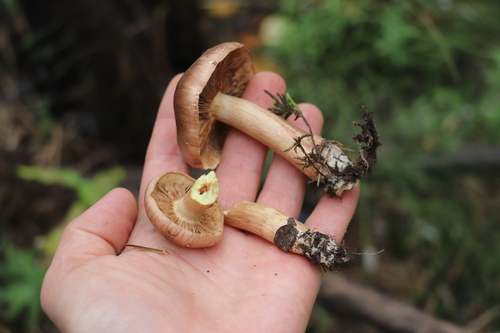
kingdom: Fungi
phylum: Basidiomycota
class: Agaricomycetes
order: Agaricales
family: Tricholomataceae
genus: Tricholoma
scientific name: Tricholoma fulvum
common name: Birch knight
